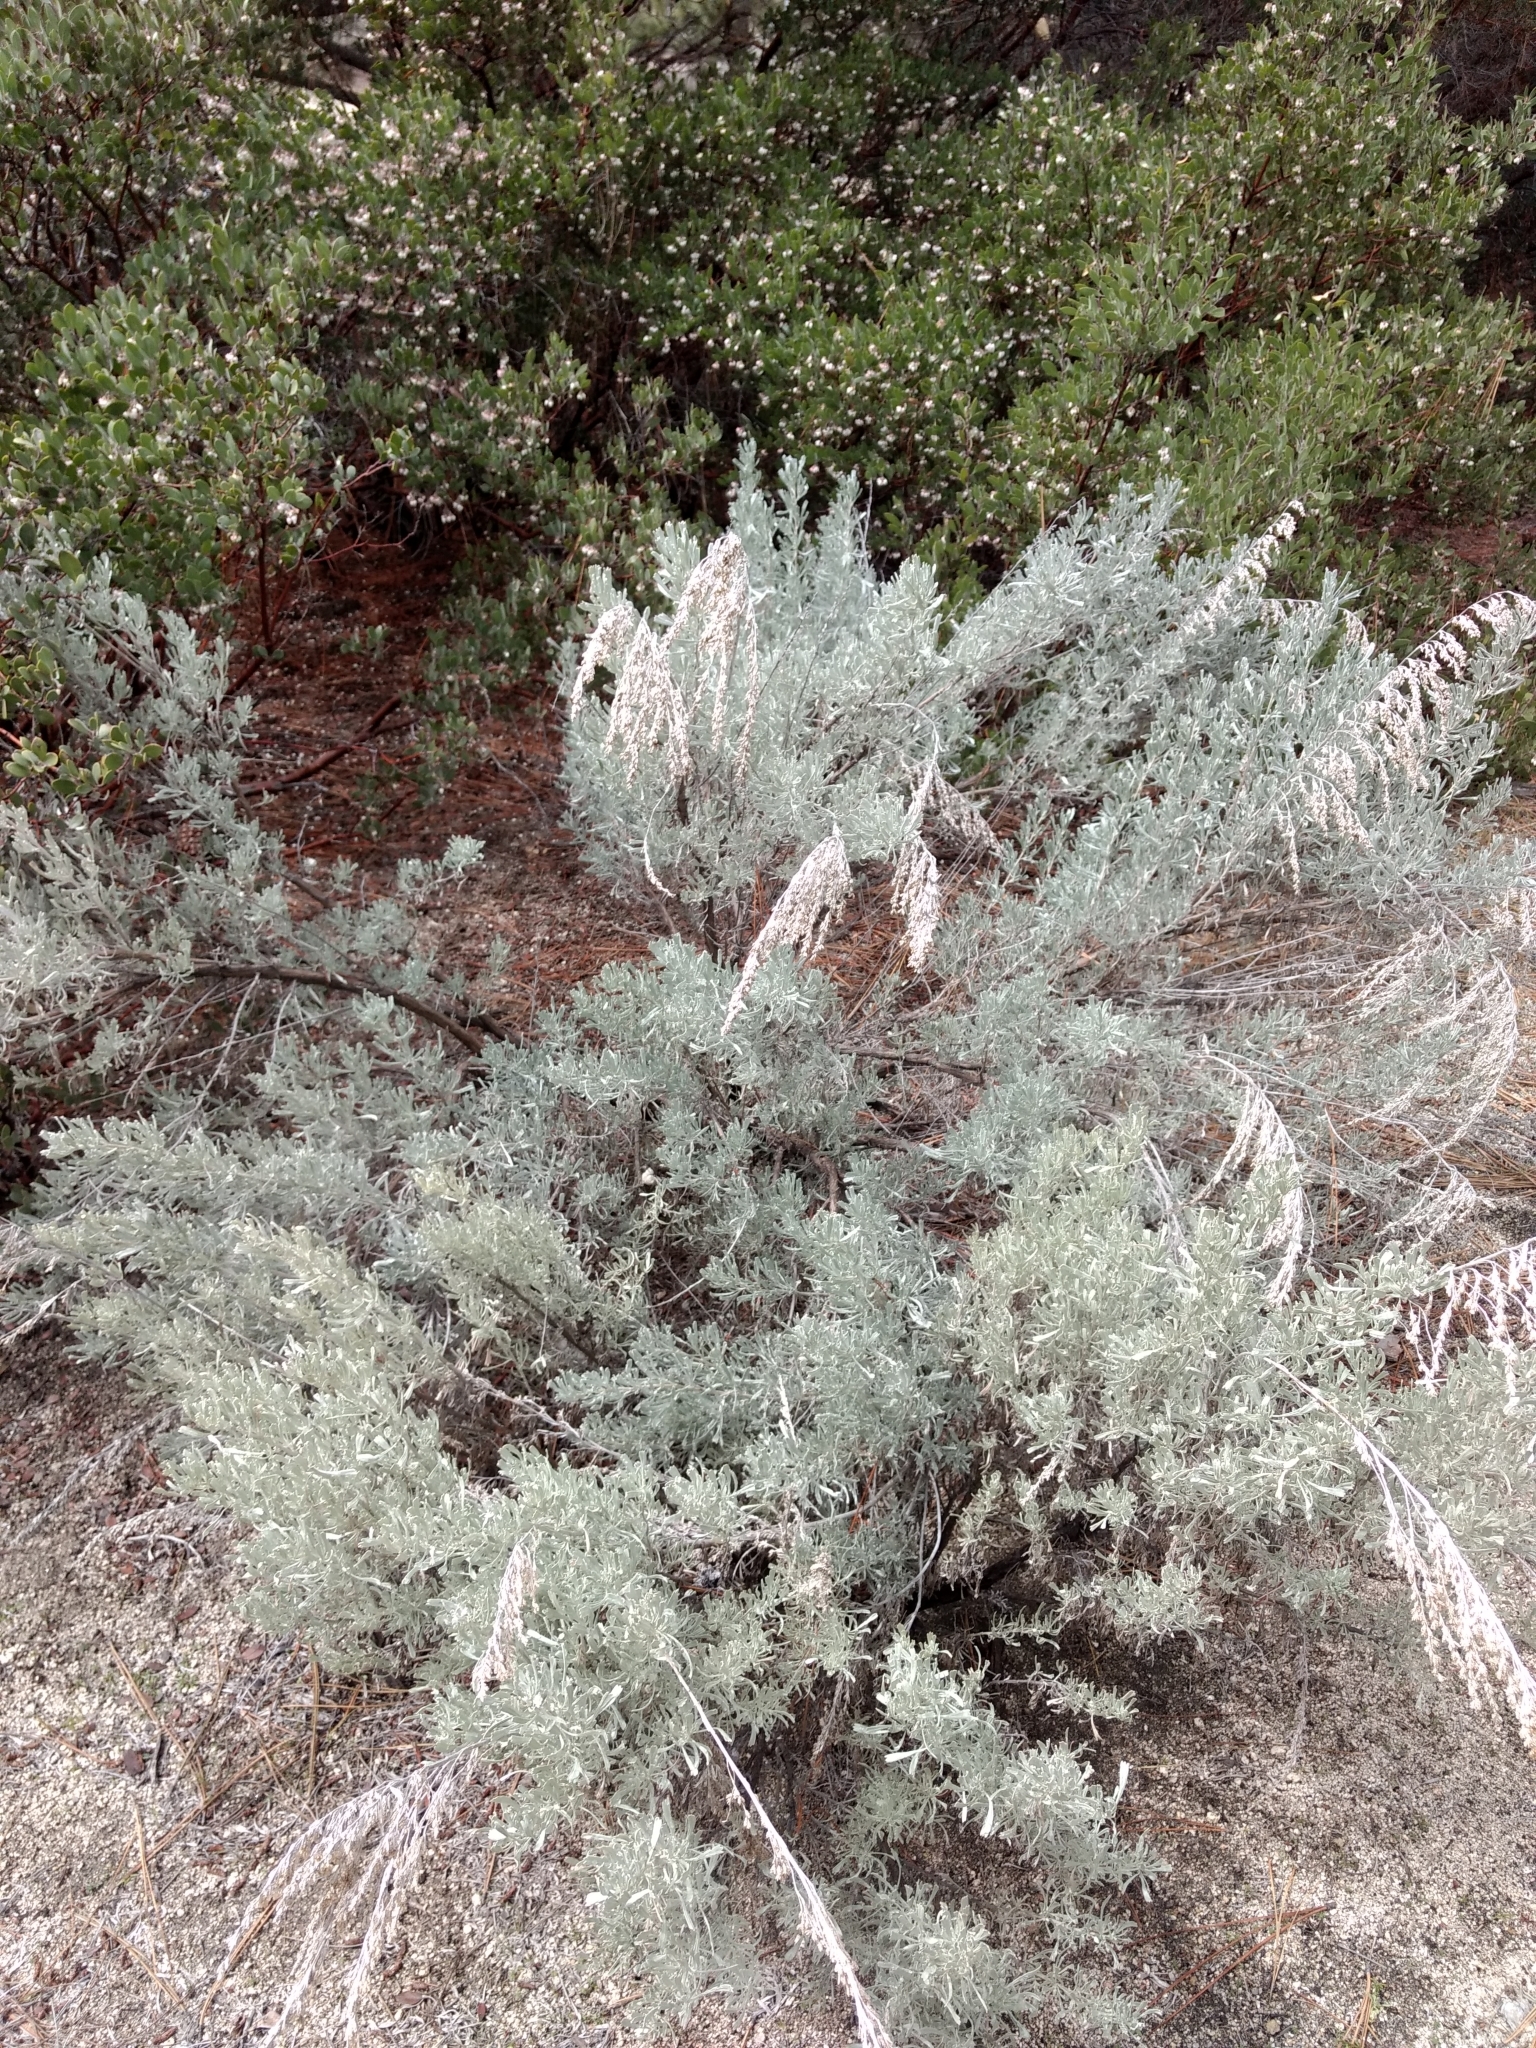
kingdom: Plantae
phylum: Tracheophyta
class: Magnoliopsida
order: Asterales
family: Asteraceae
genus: Artemisia
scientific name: Artemisia tridentata
